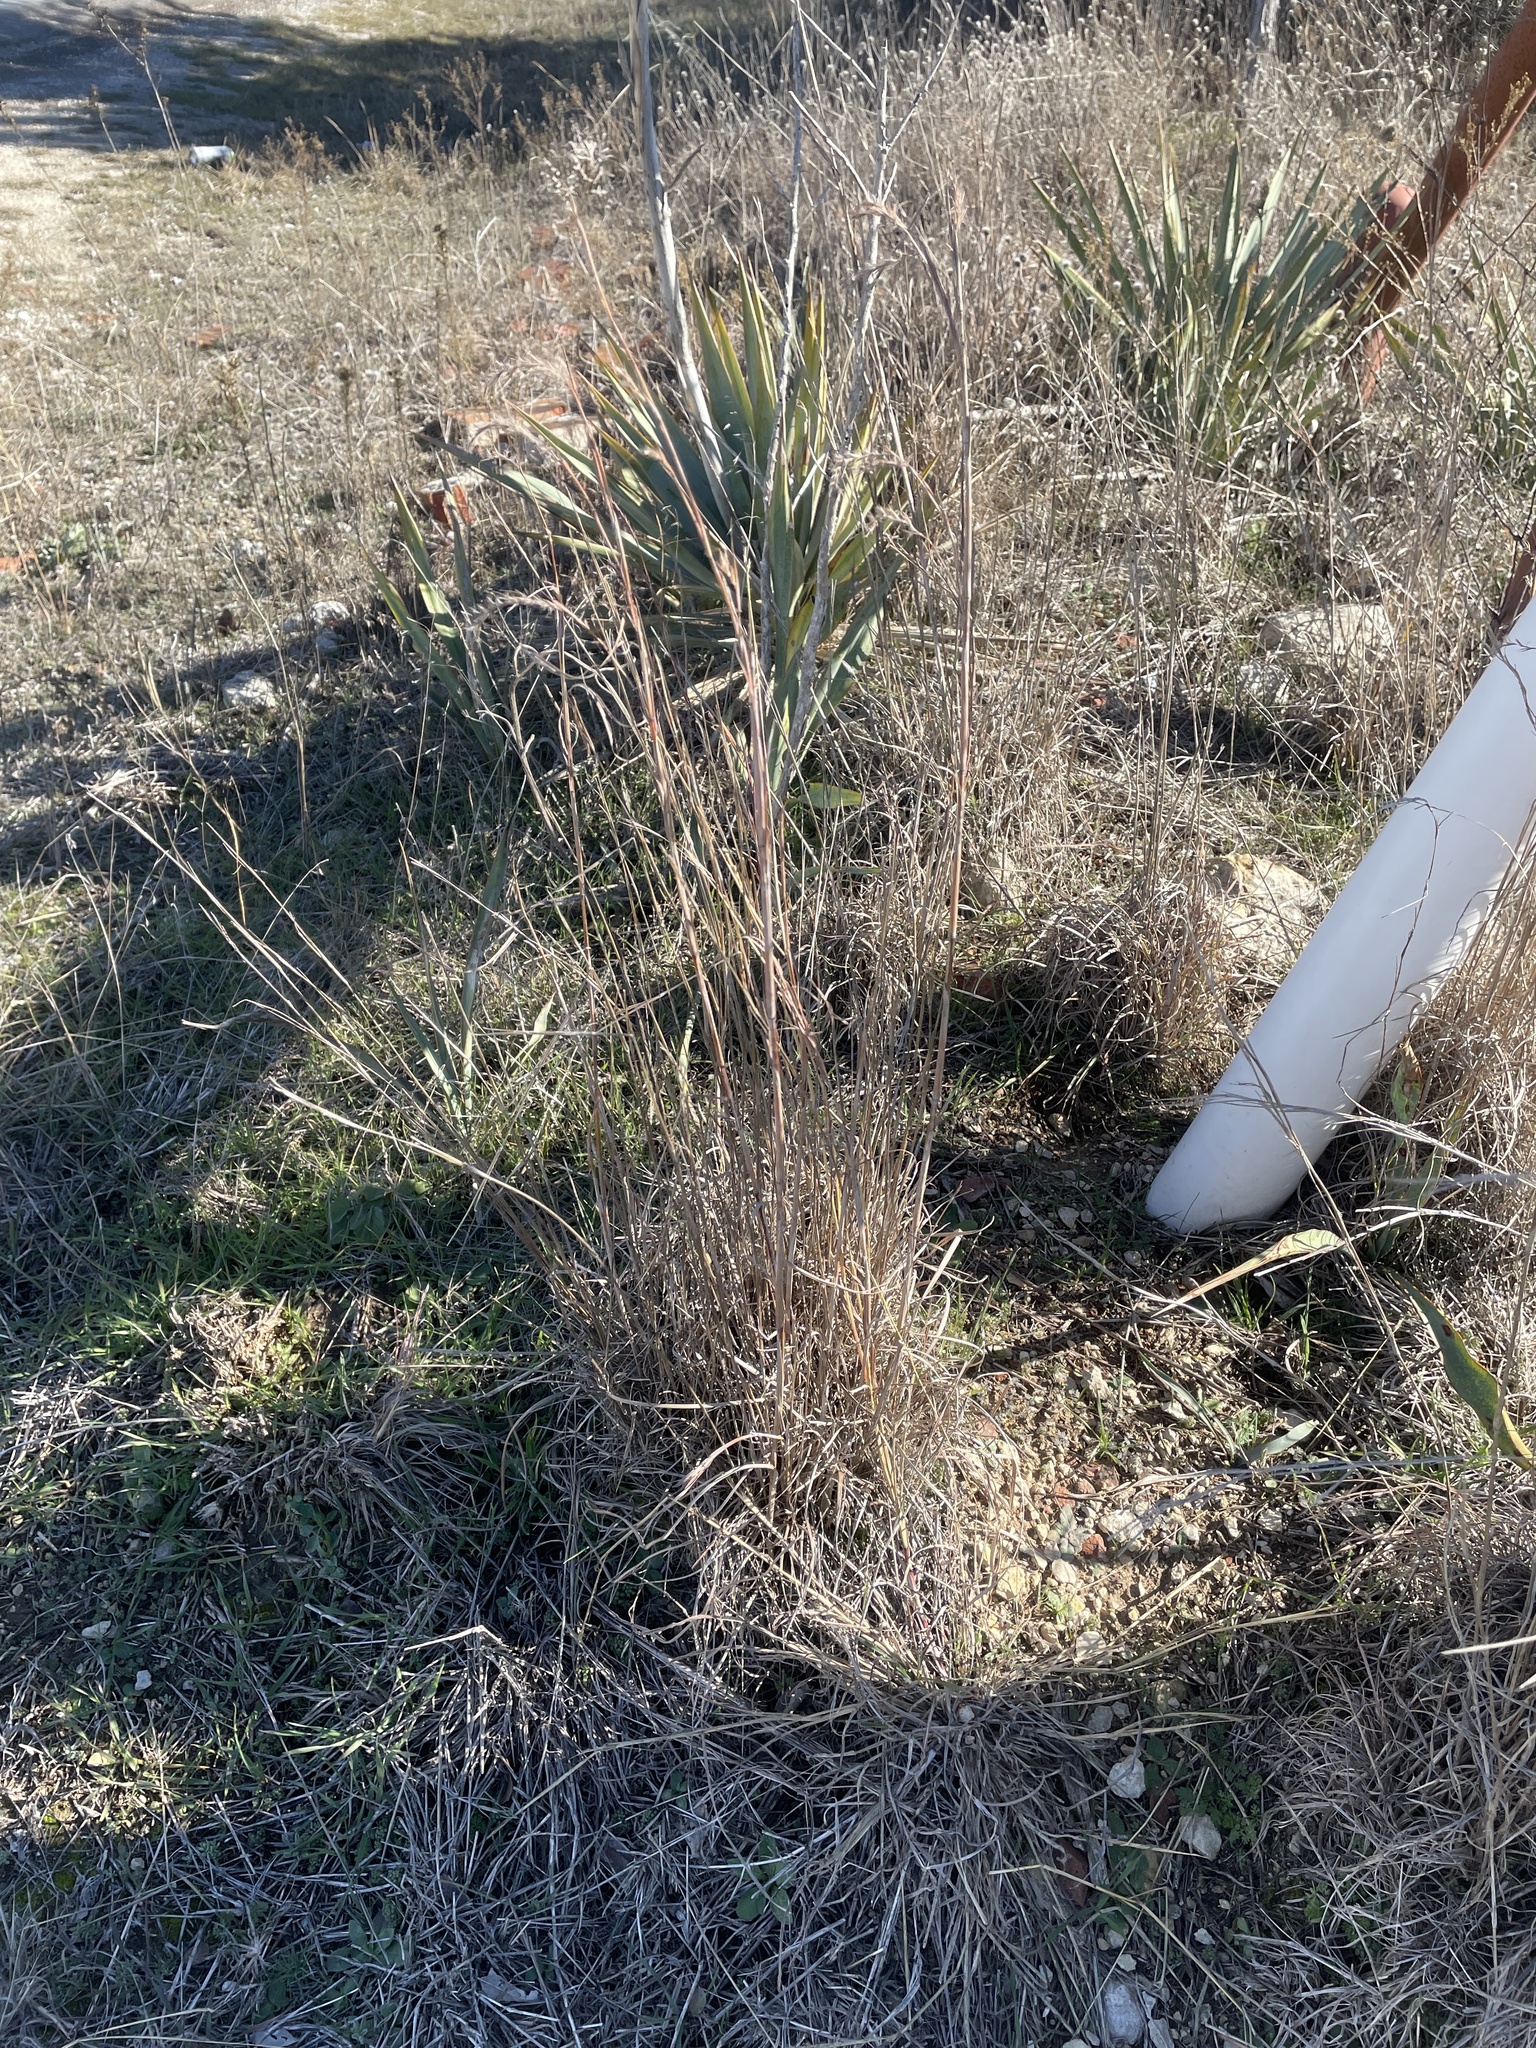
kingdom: Plantae
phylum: Tracheophyta
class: Liliopsida
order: Poales
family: Poaceae
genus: Schizachyrium
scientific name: Schizachyrium scoparium
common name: Little bluestem
